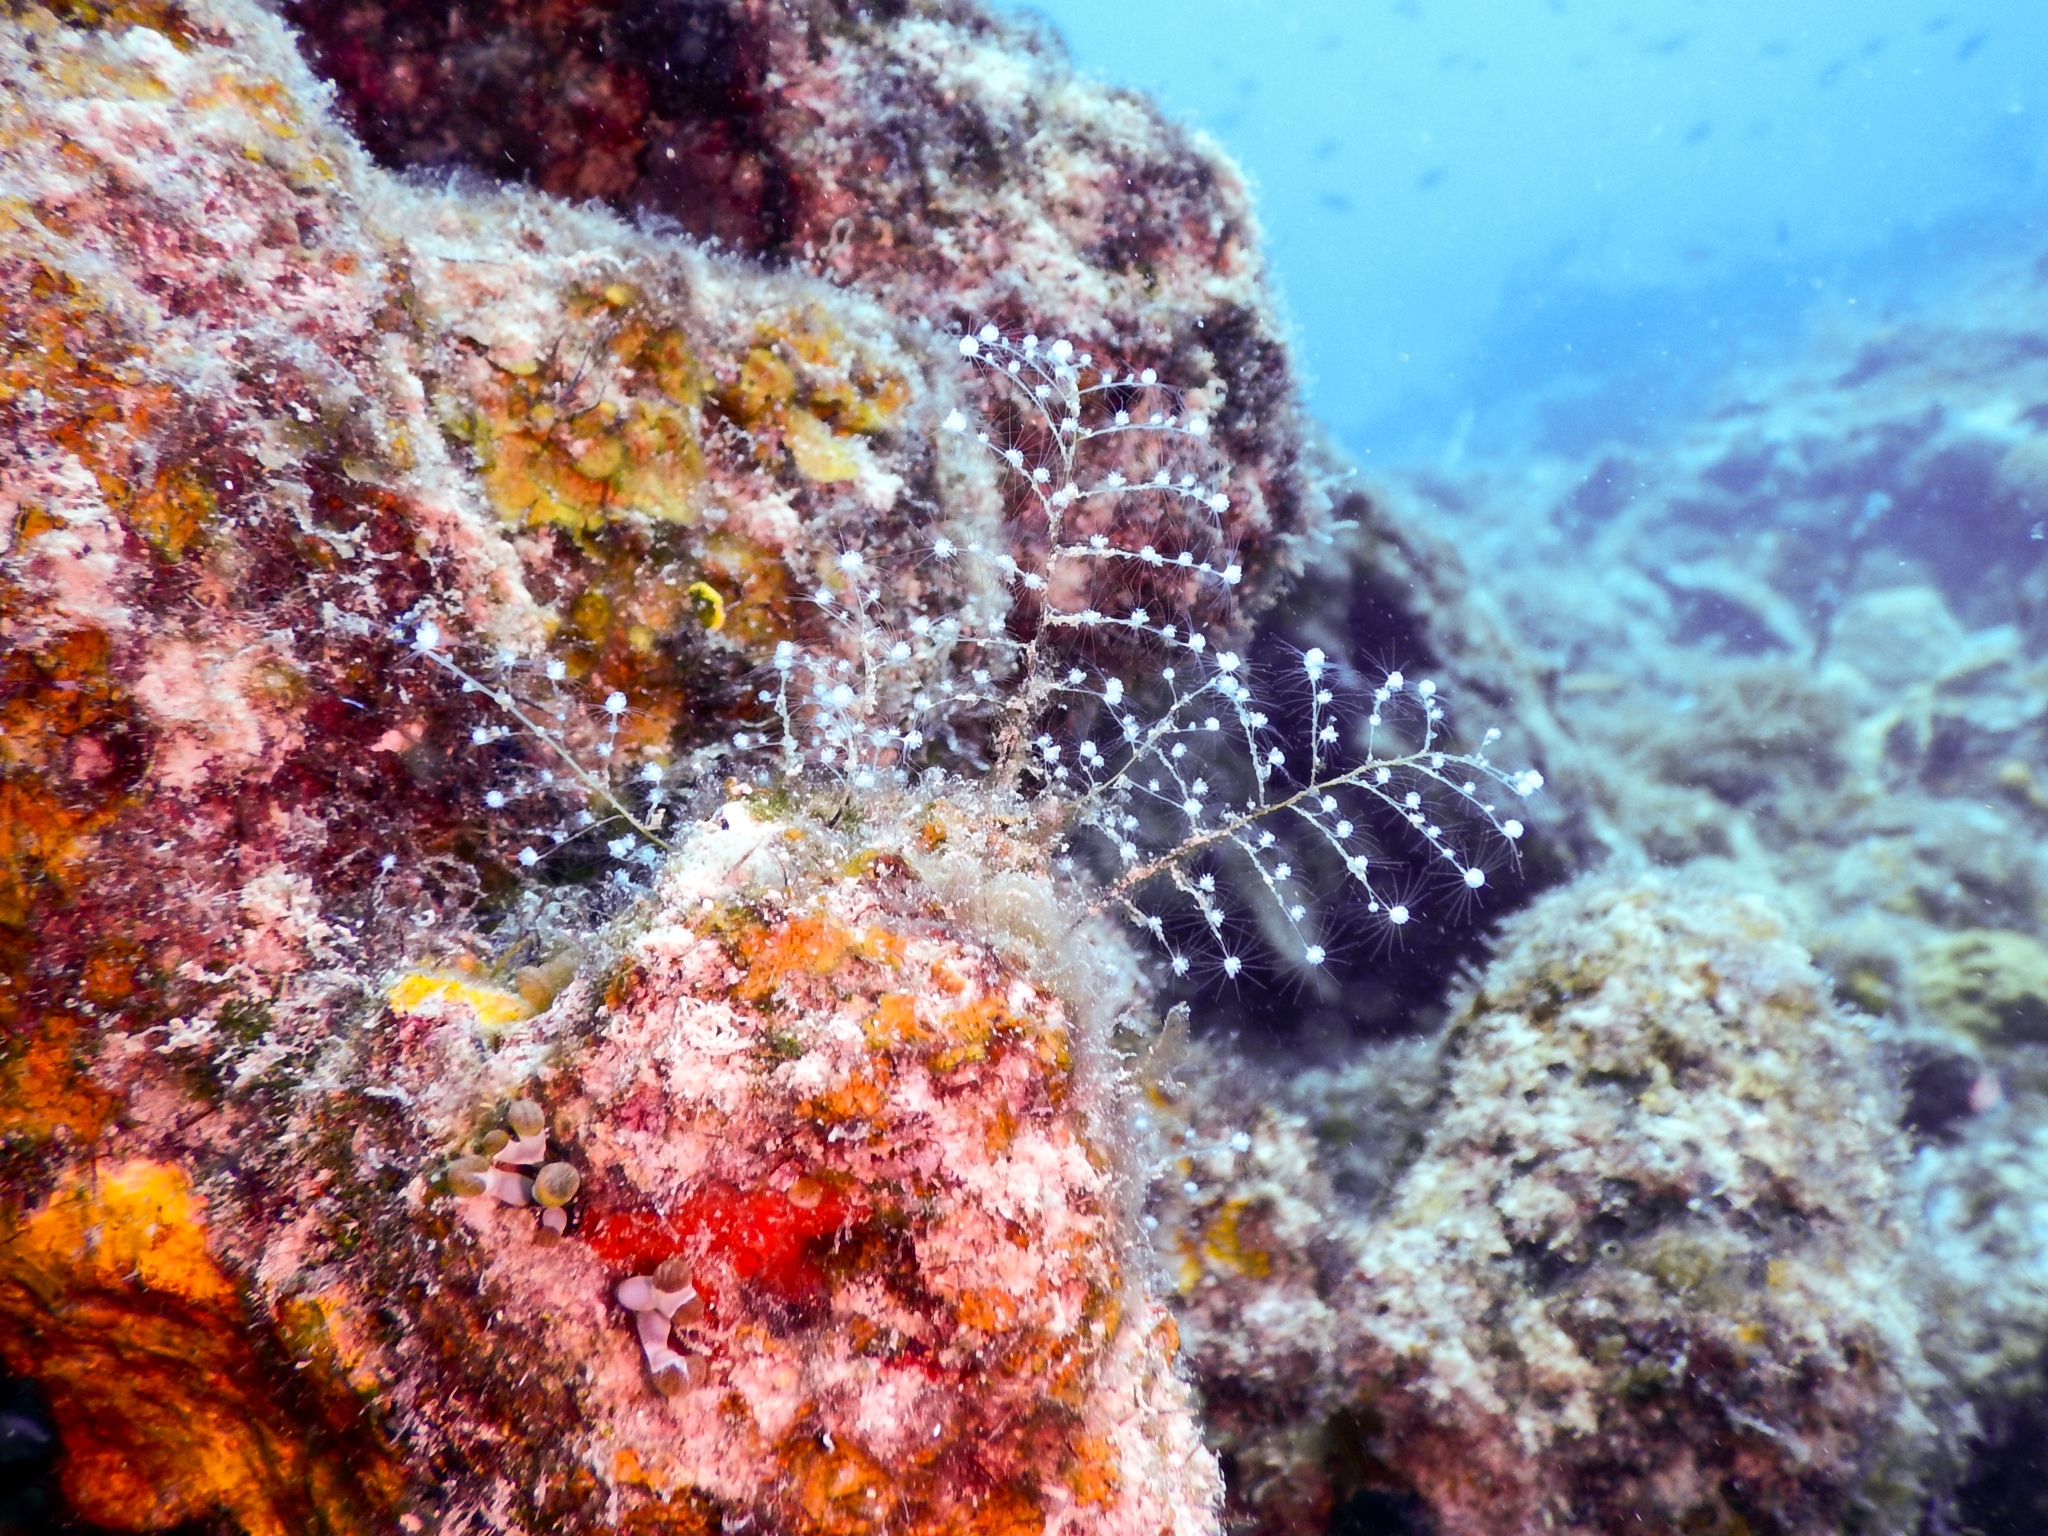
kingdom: Animalia
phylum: Cnidaria
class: Hydrozoa
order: Anthoathecata
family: Pennariidae
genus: Pennaria
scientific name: Pennaria disticha
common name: Feather hydroid
